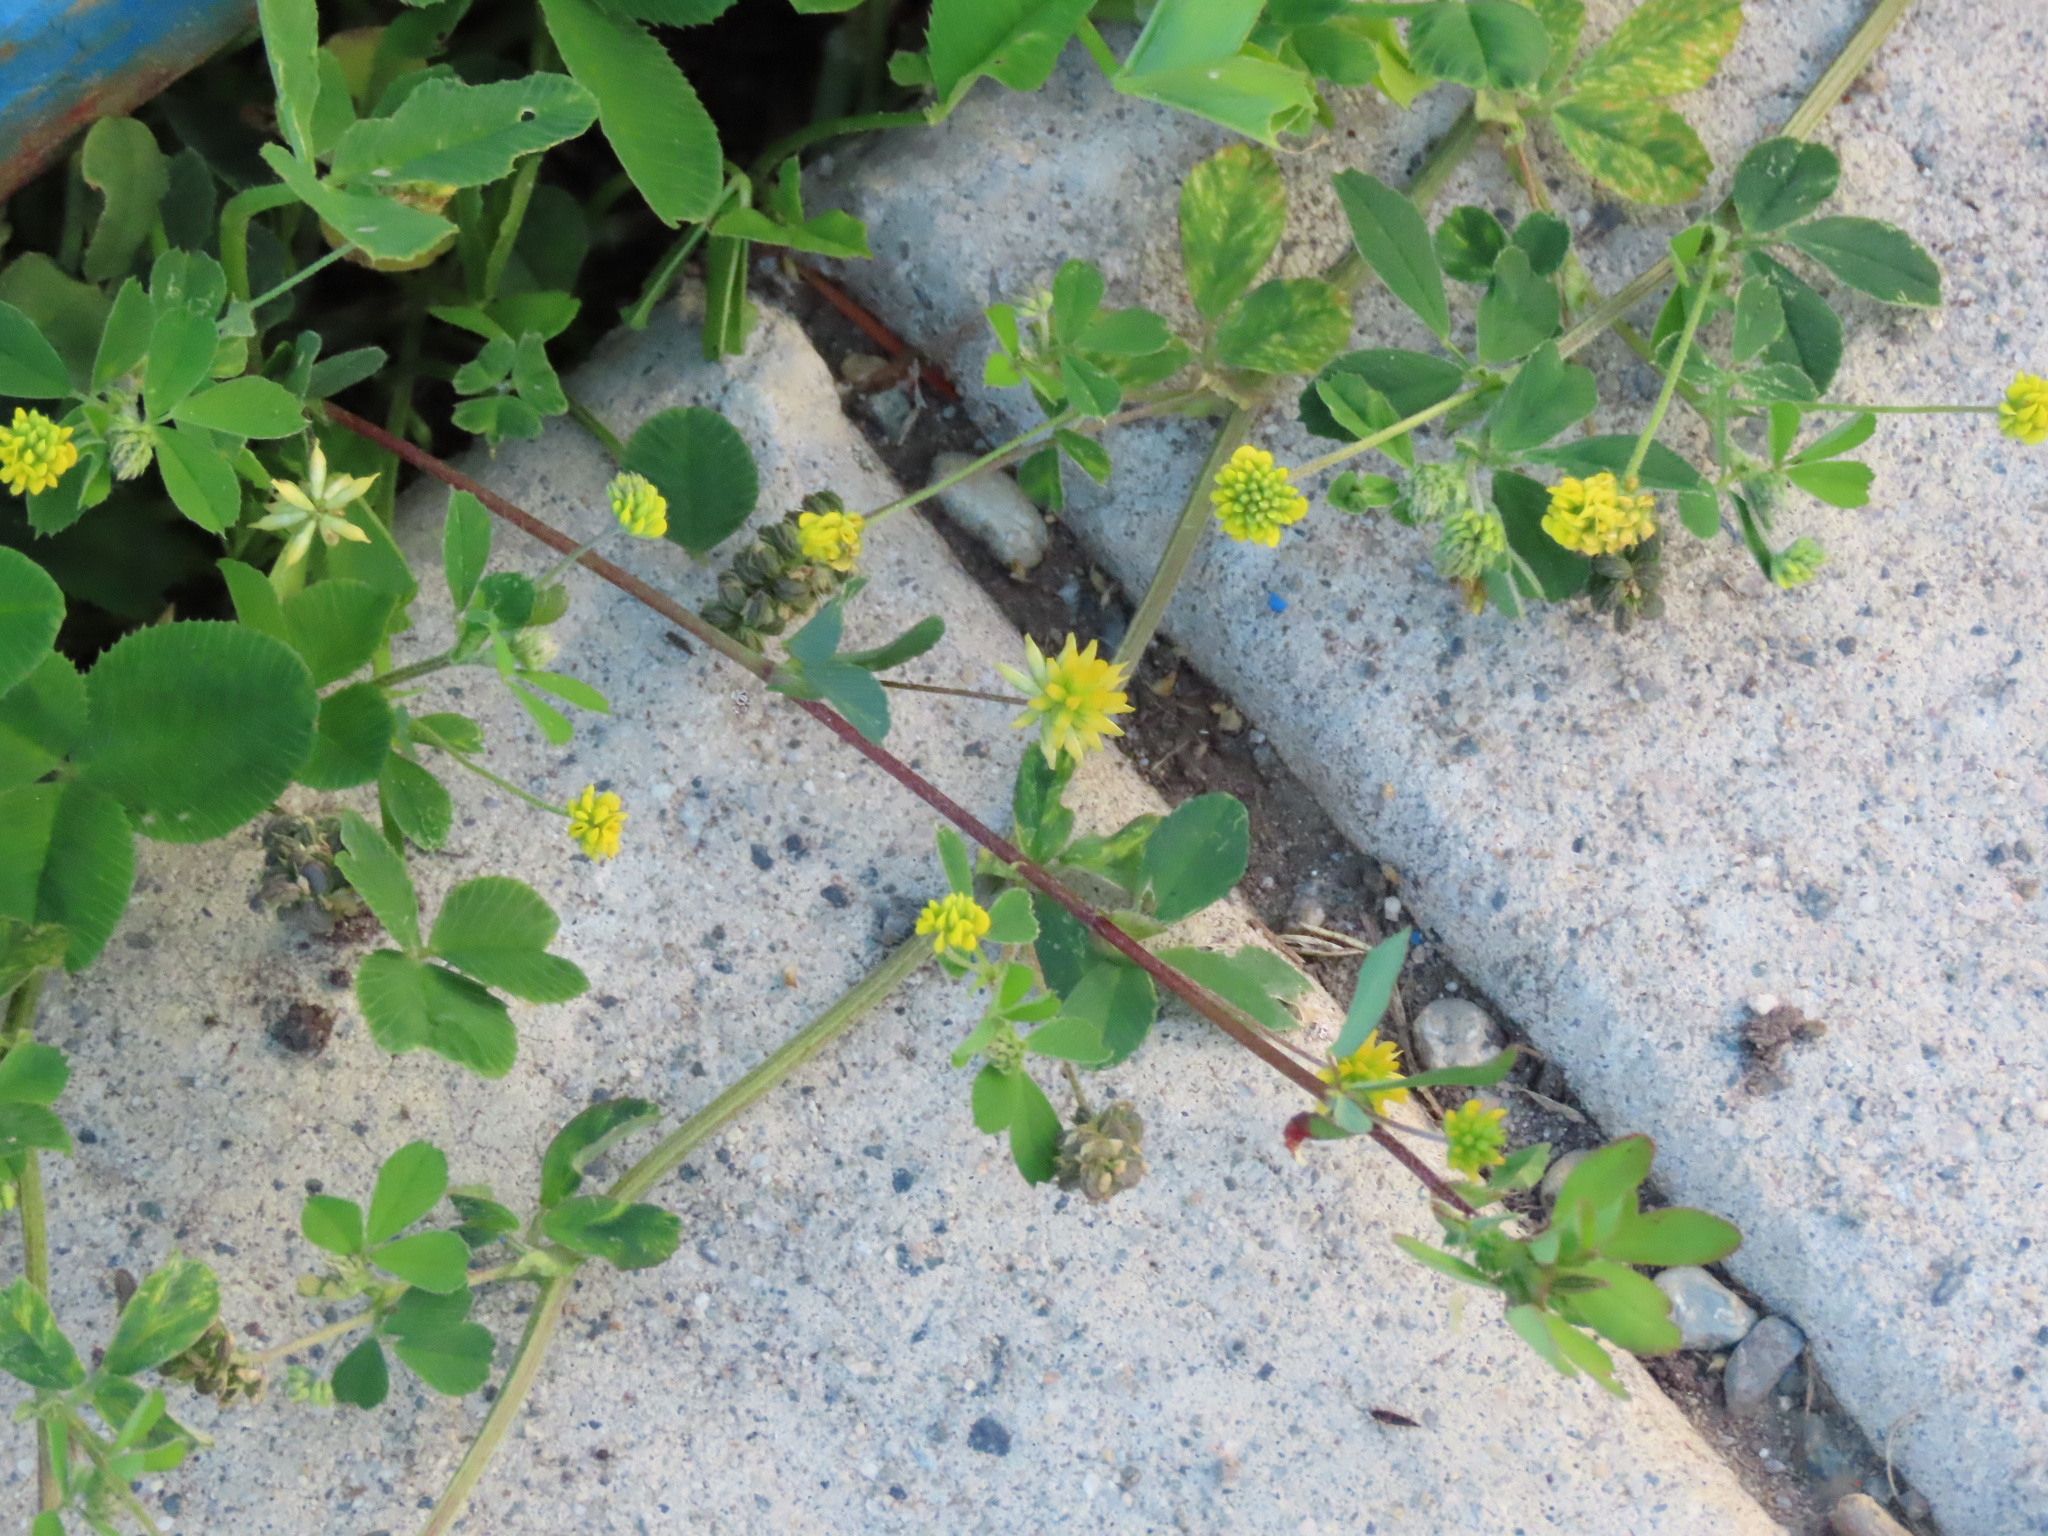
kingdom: Plantae
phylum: Tracheophyta
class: Magnoliopsida
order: Fabales
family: Fabaceae
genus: Medicago
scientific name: Medicago lupulina
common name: Black medick
